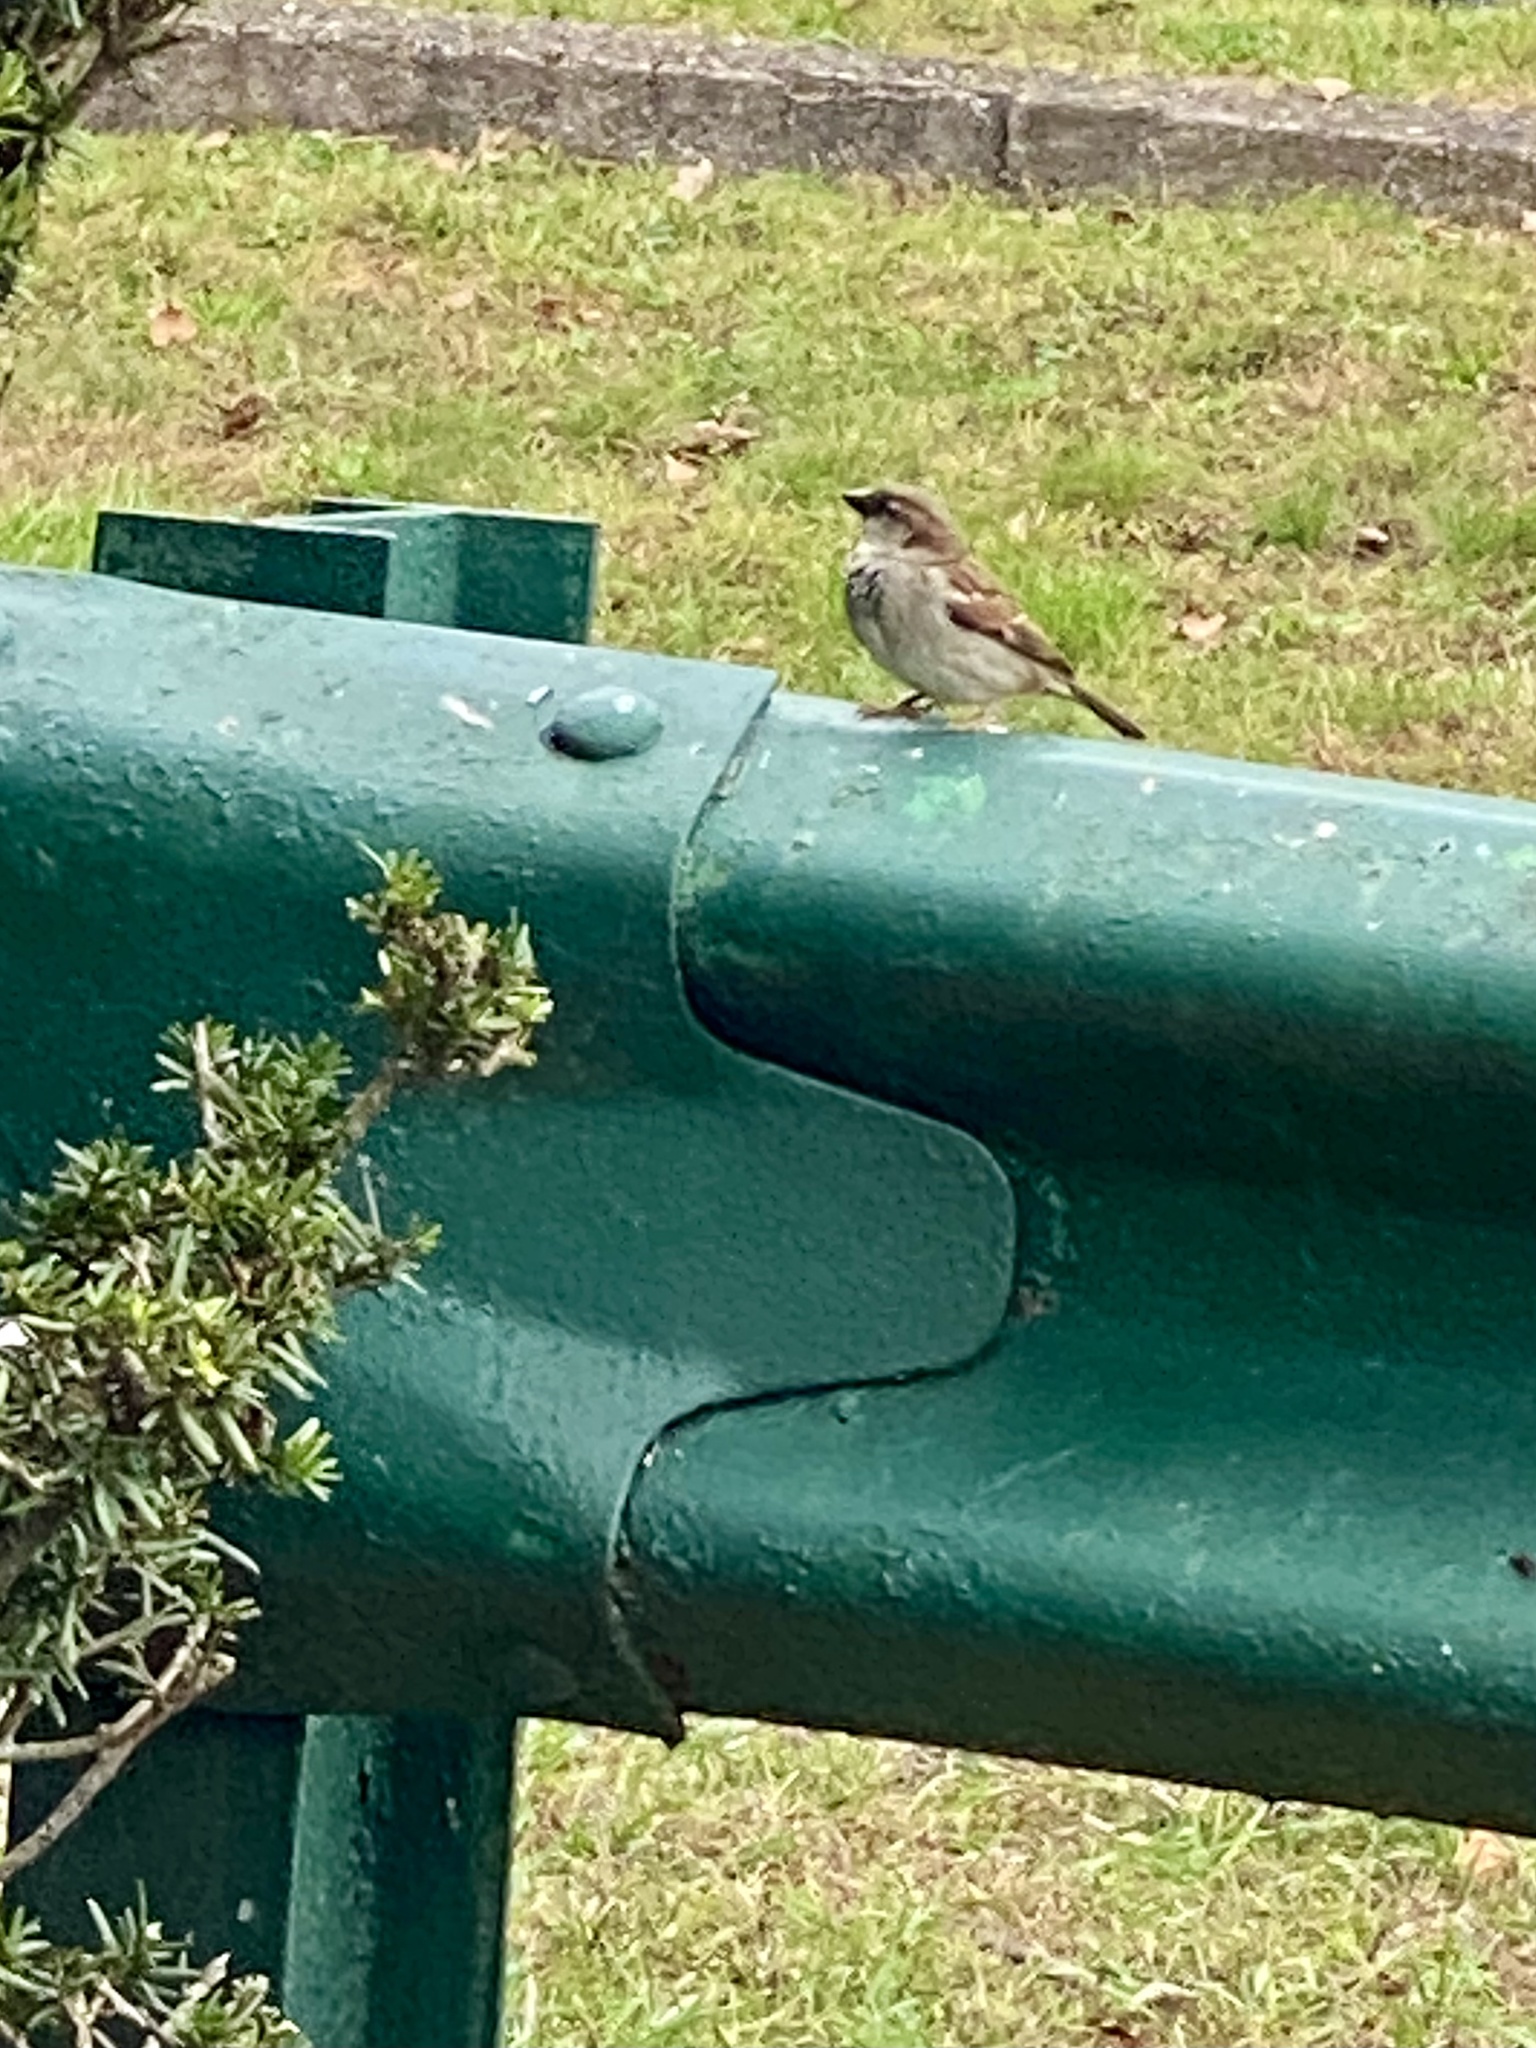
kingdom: Animalia
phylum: Chordata
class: Aves
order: Passeriformes
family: Passeridae
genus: Passer
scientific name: Passer domesticus
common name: House sparrow
